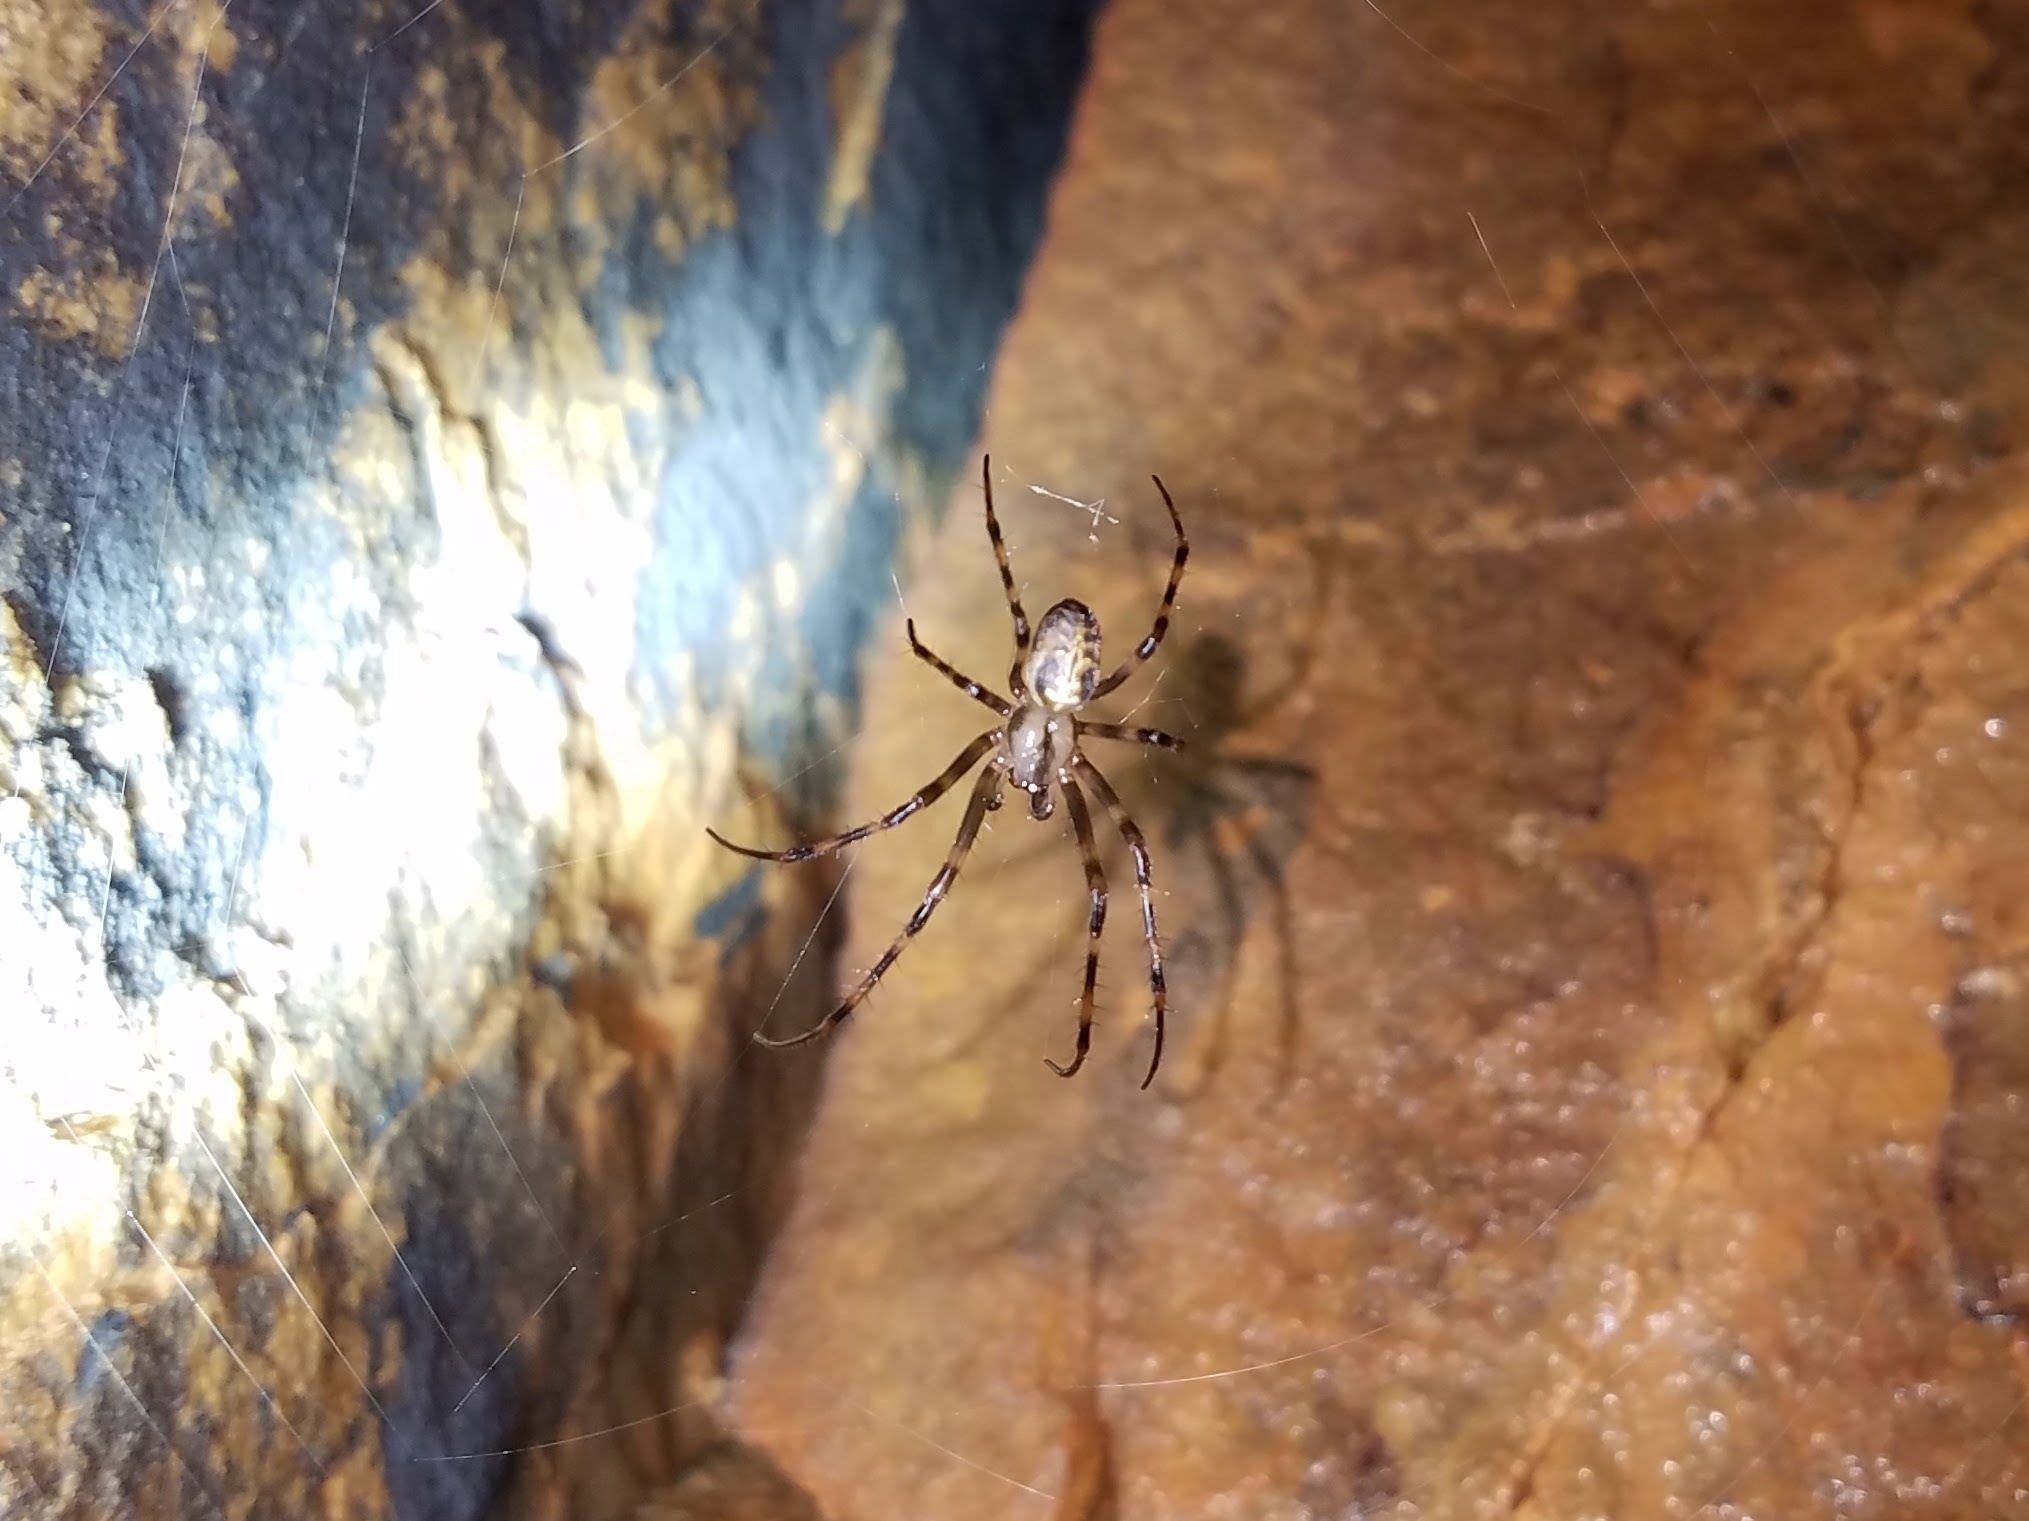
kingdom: Animalia
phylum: Arthropoda
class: Arachnida
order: Araneae
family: Tetragnathidae
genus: Meta
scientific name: Meta ovalis
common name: Eastern cave long-jawed spider
